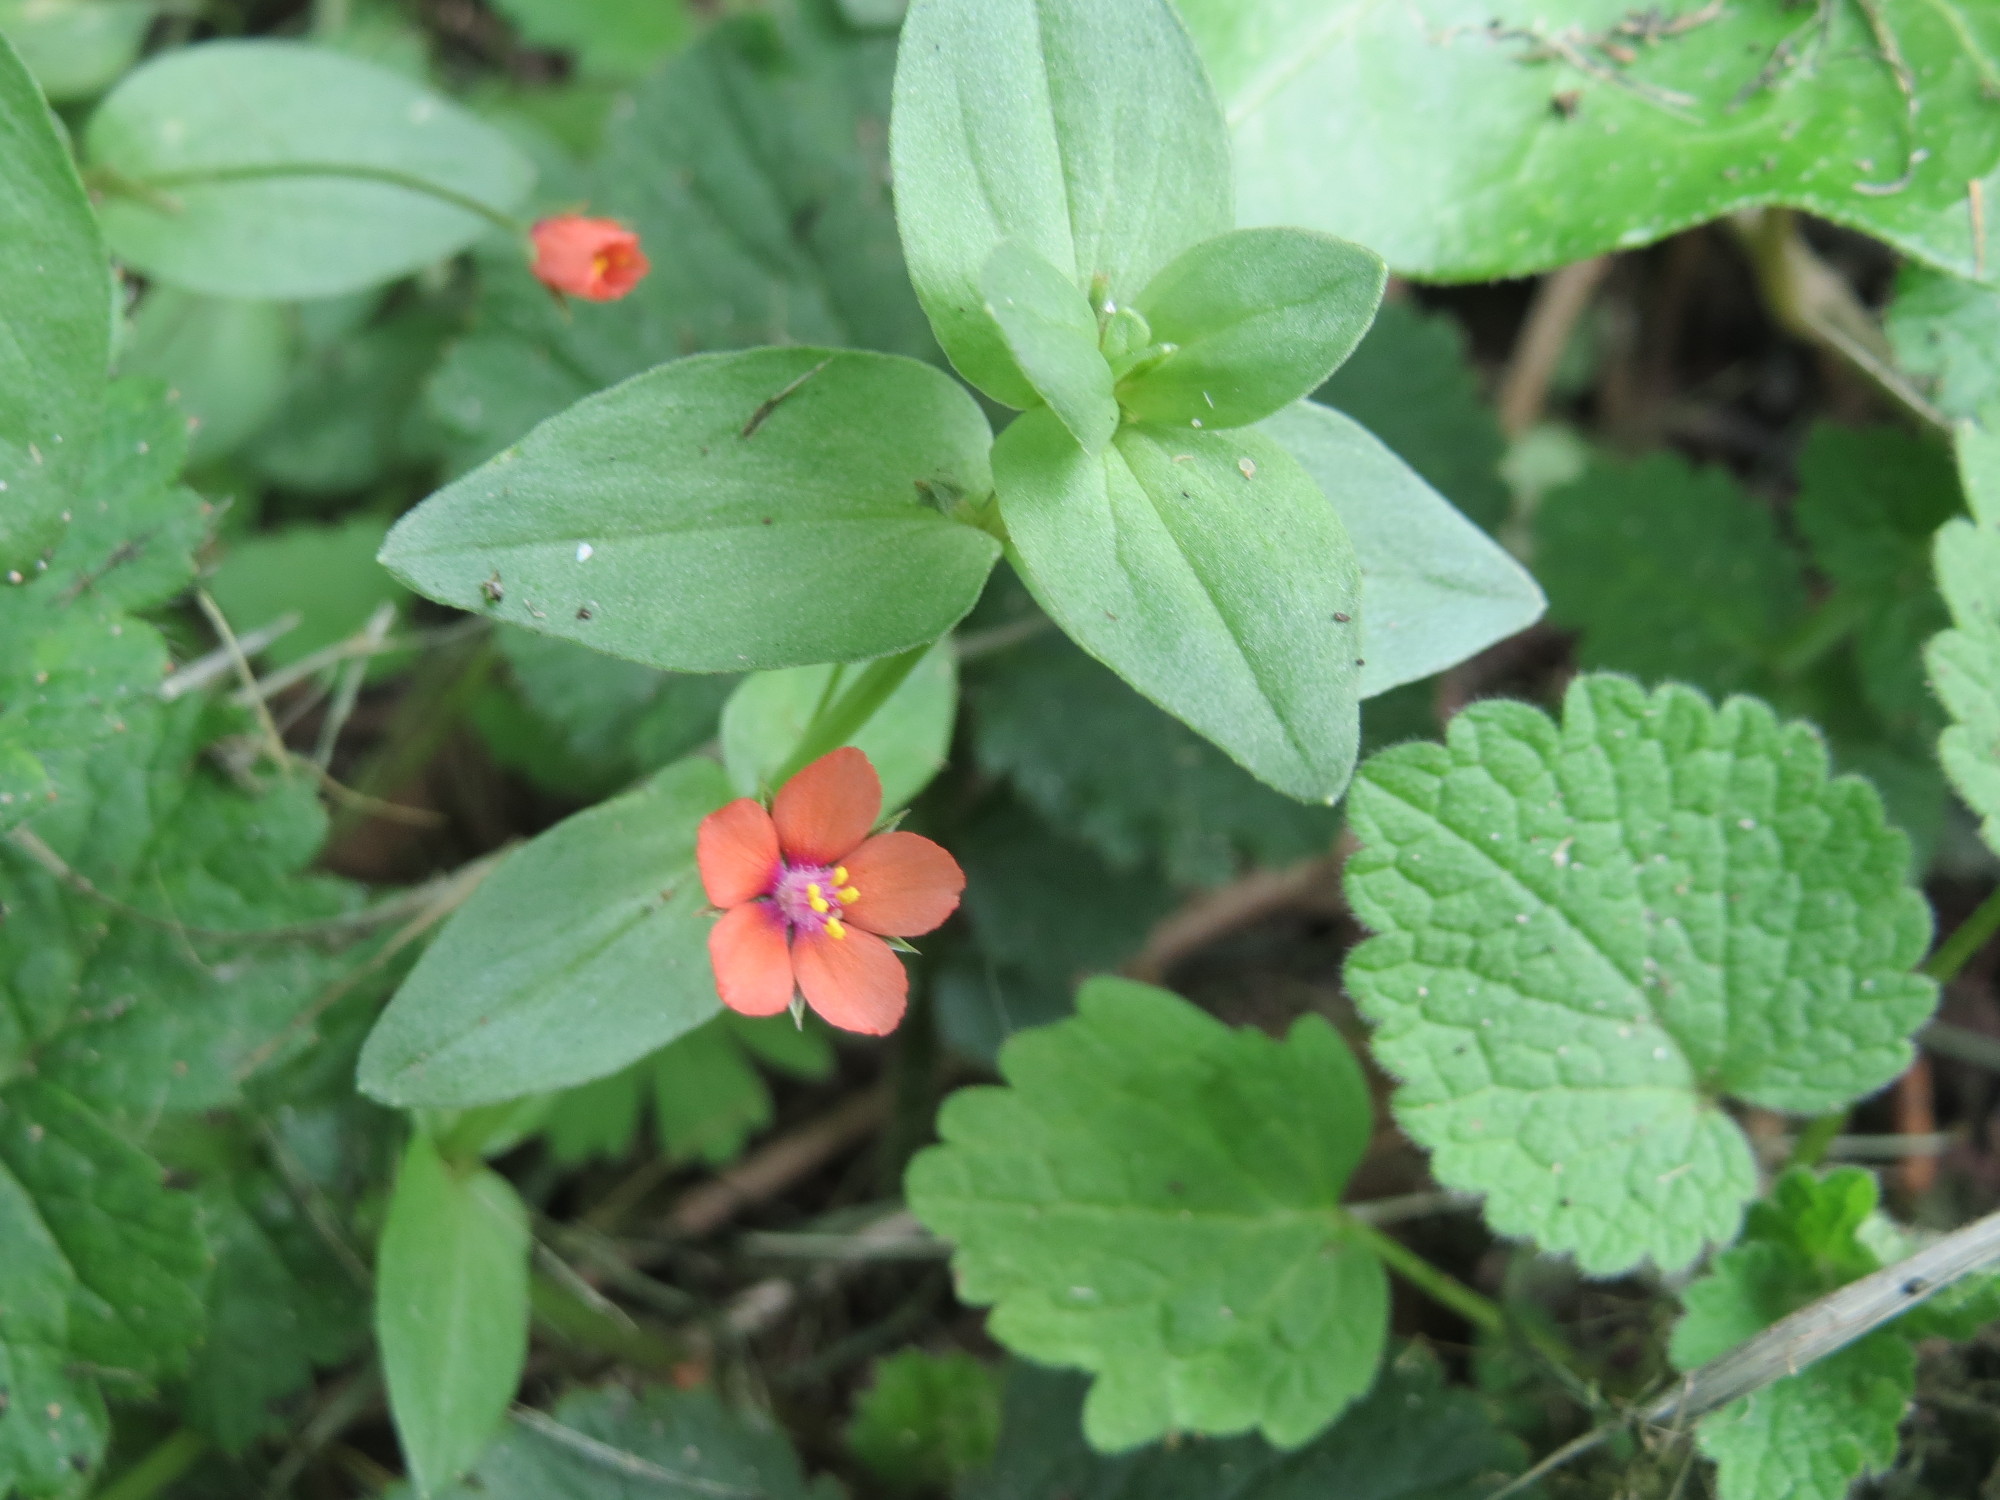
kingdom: Plantae
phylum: Tracheophyta
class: Magnoliopsida
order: Ericales
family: Primulaceae
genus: Lysimachia
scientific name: Lysimachia arvensis
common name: Scarlet pimpernel
